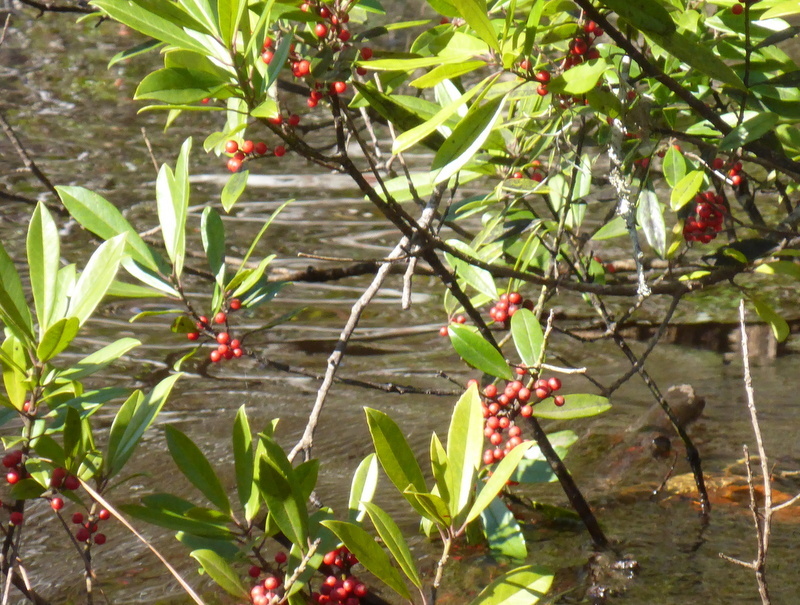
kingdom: Plantae
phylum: Tracheophyta
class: Magnoliopsida
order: Aquifoliales
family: Aquifoliaceae
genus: Ilex
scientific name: Ilex cassine
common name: Dahoon
